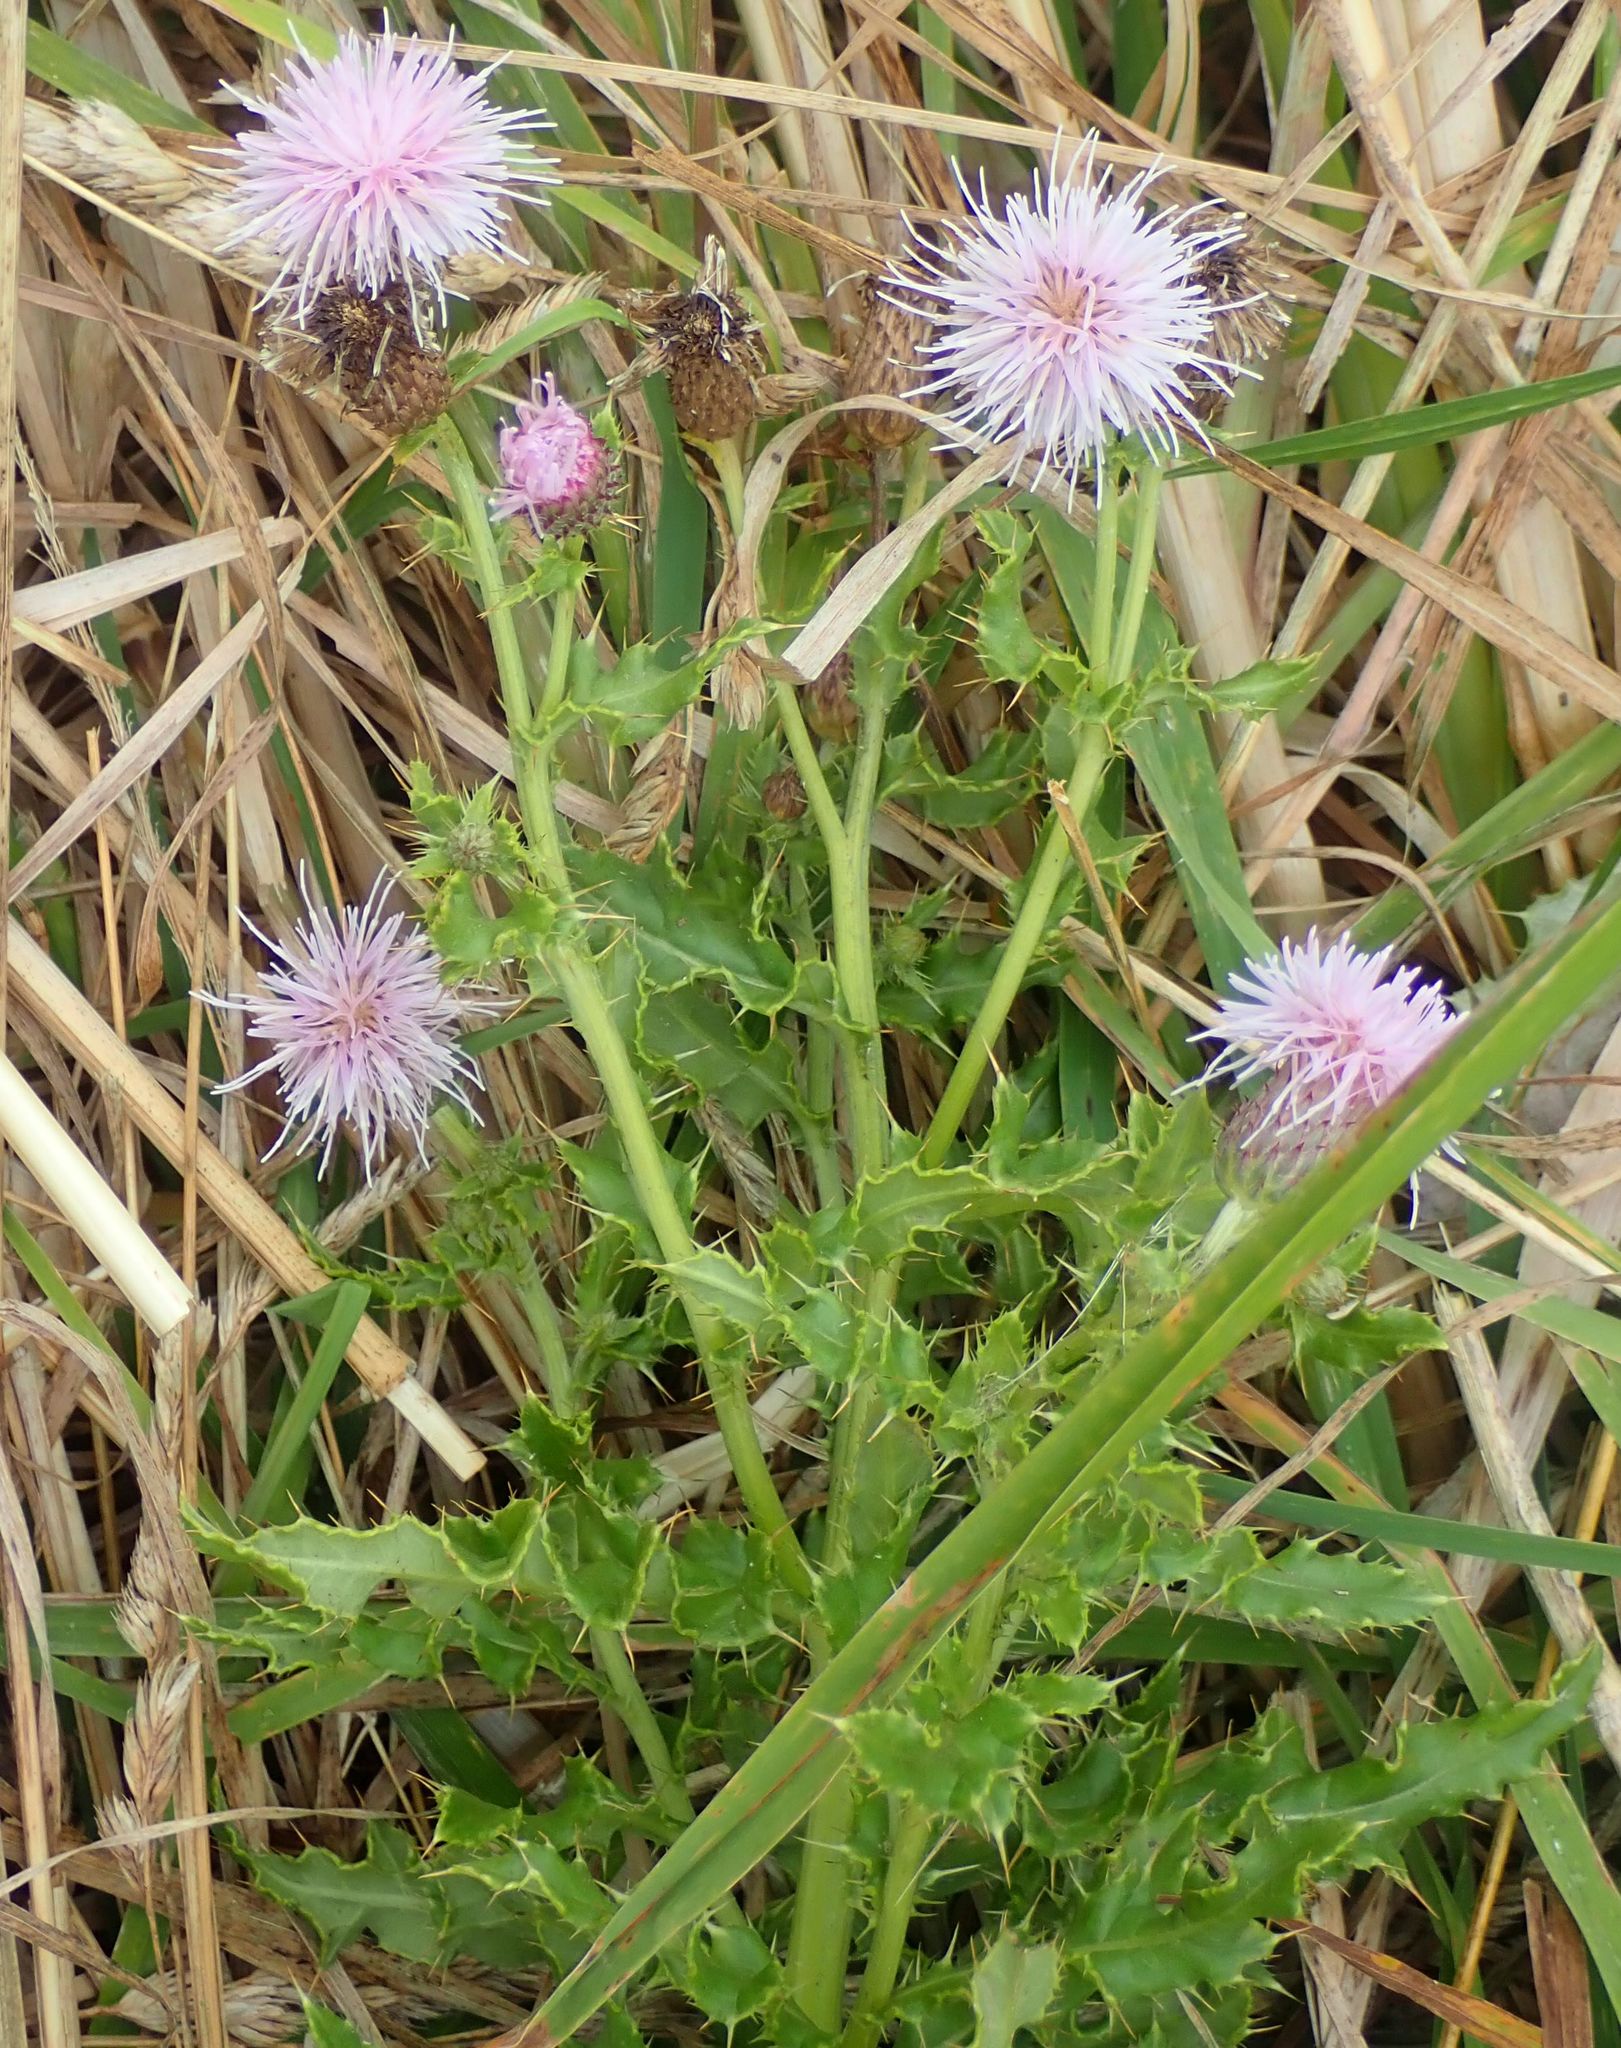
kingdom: Plantae
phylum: Tracheophyta
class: Magnoliopsida
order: Asterales
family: Asteraceae
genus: Cirsium
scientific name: Cirsium arvense
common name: Creeping thistle
